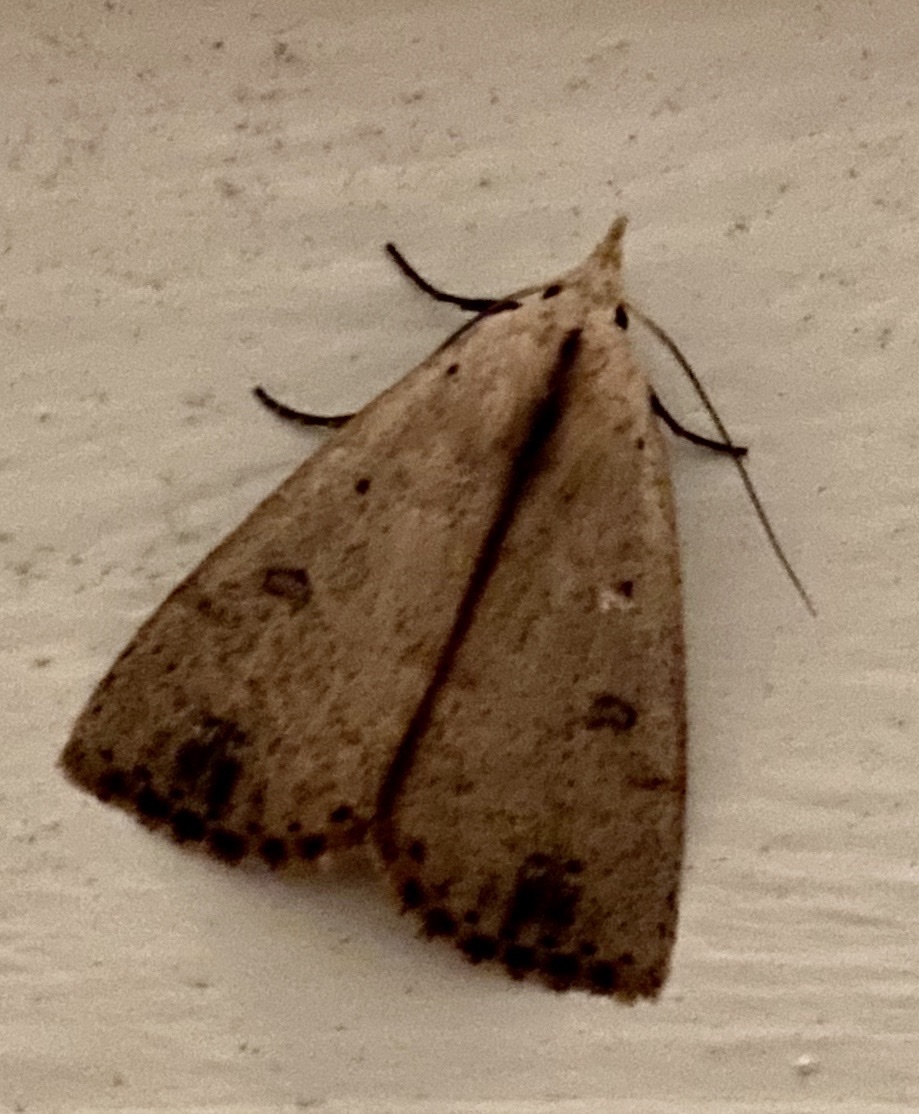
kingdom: Animalia
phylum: Arthropoda
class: Insecta
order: Lepidoptera
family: Erebidae
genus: Scolecocampa
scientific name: Scolecocampa liburna
